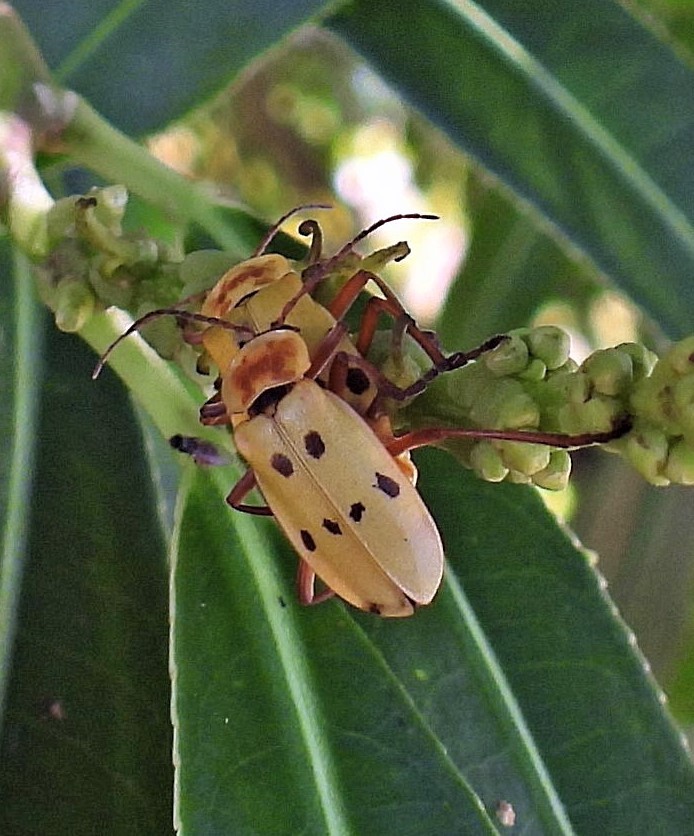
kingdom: Animalia
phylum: Arthropoda
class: Insecta
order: Coleoptera
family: Cantharidae
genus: Chauliognathus
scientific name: Chauliognathus
